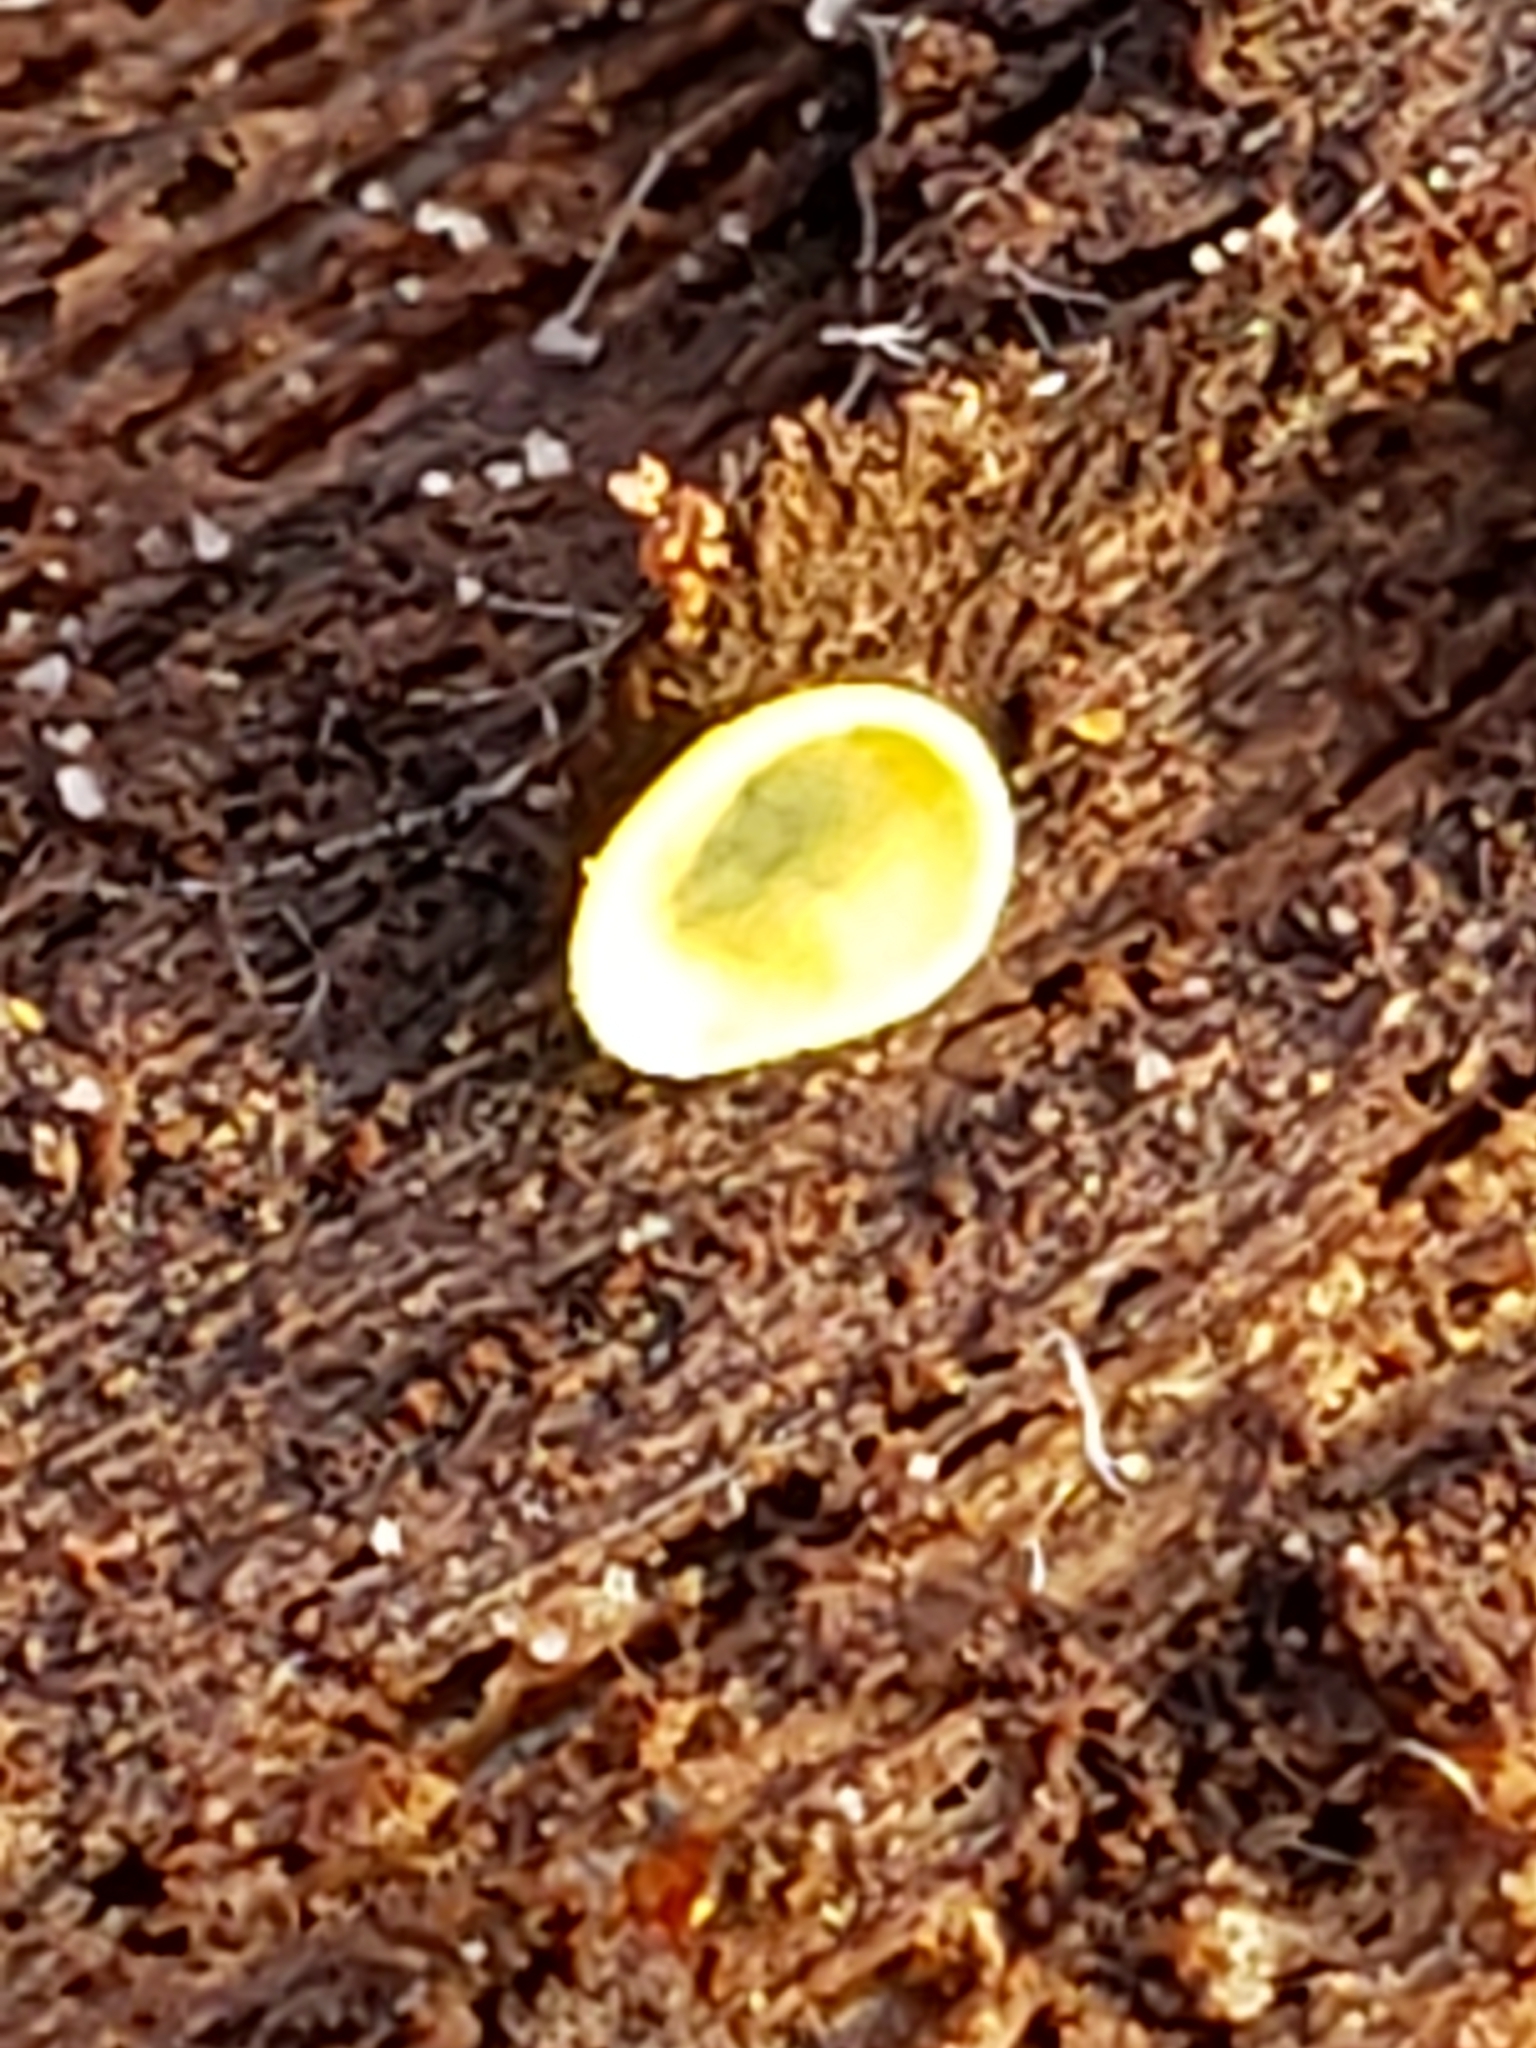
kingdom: Fungi
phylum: Ascomycota
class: Leotiomycetes
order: Helotiales
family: Chlorospleniaceae
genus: Chlorosplenium
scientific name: Chlorosplenium chlora
